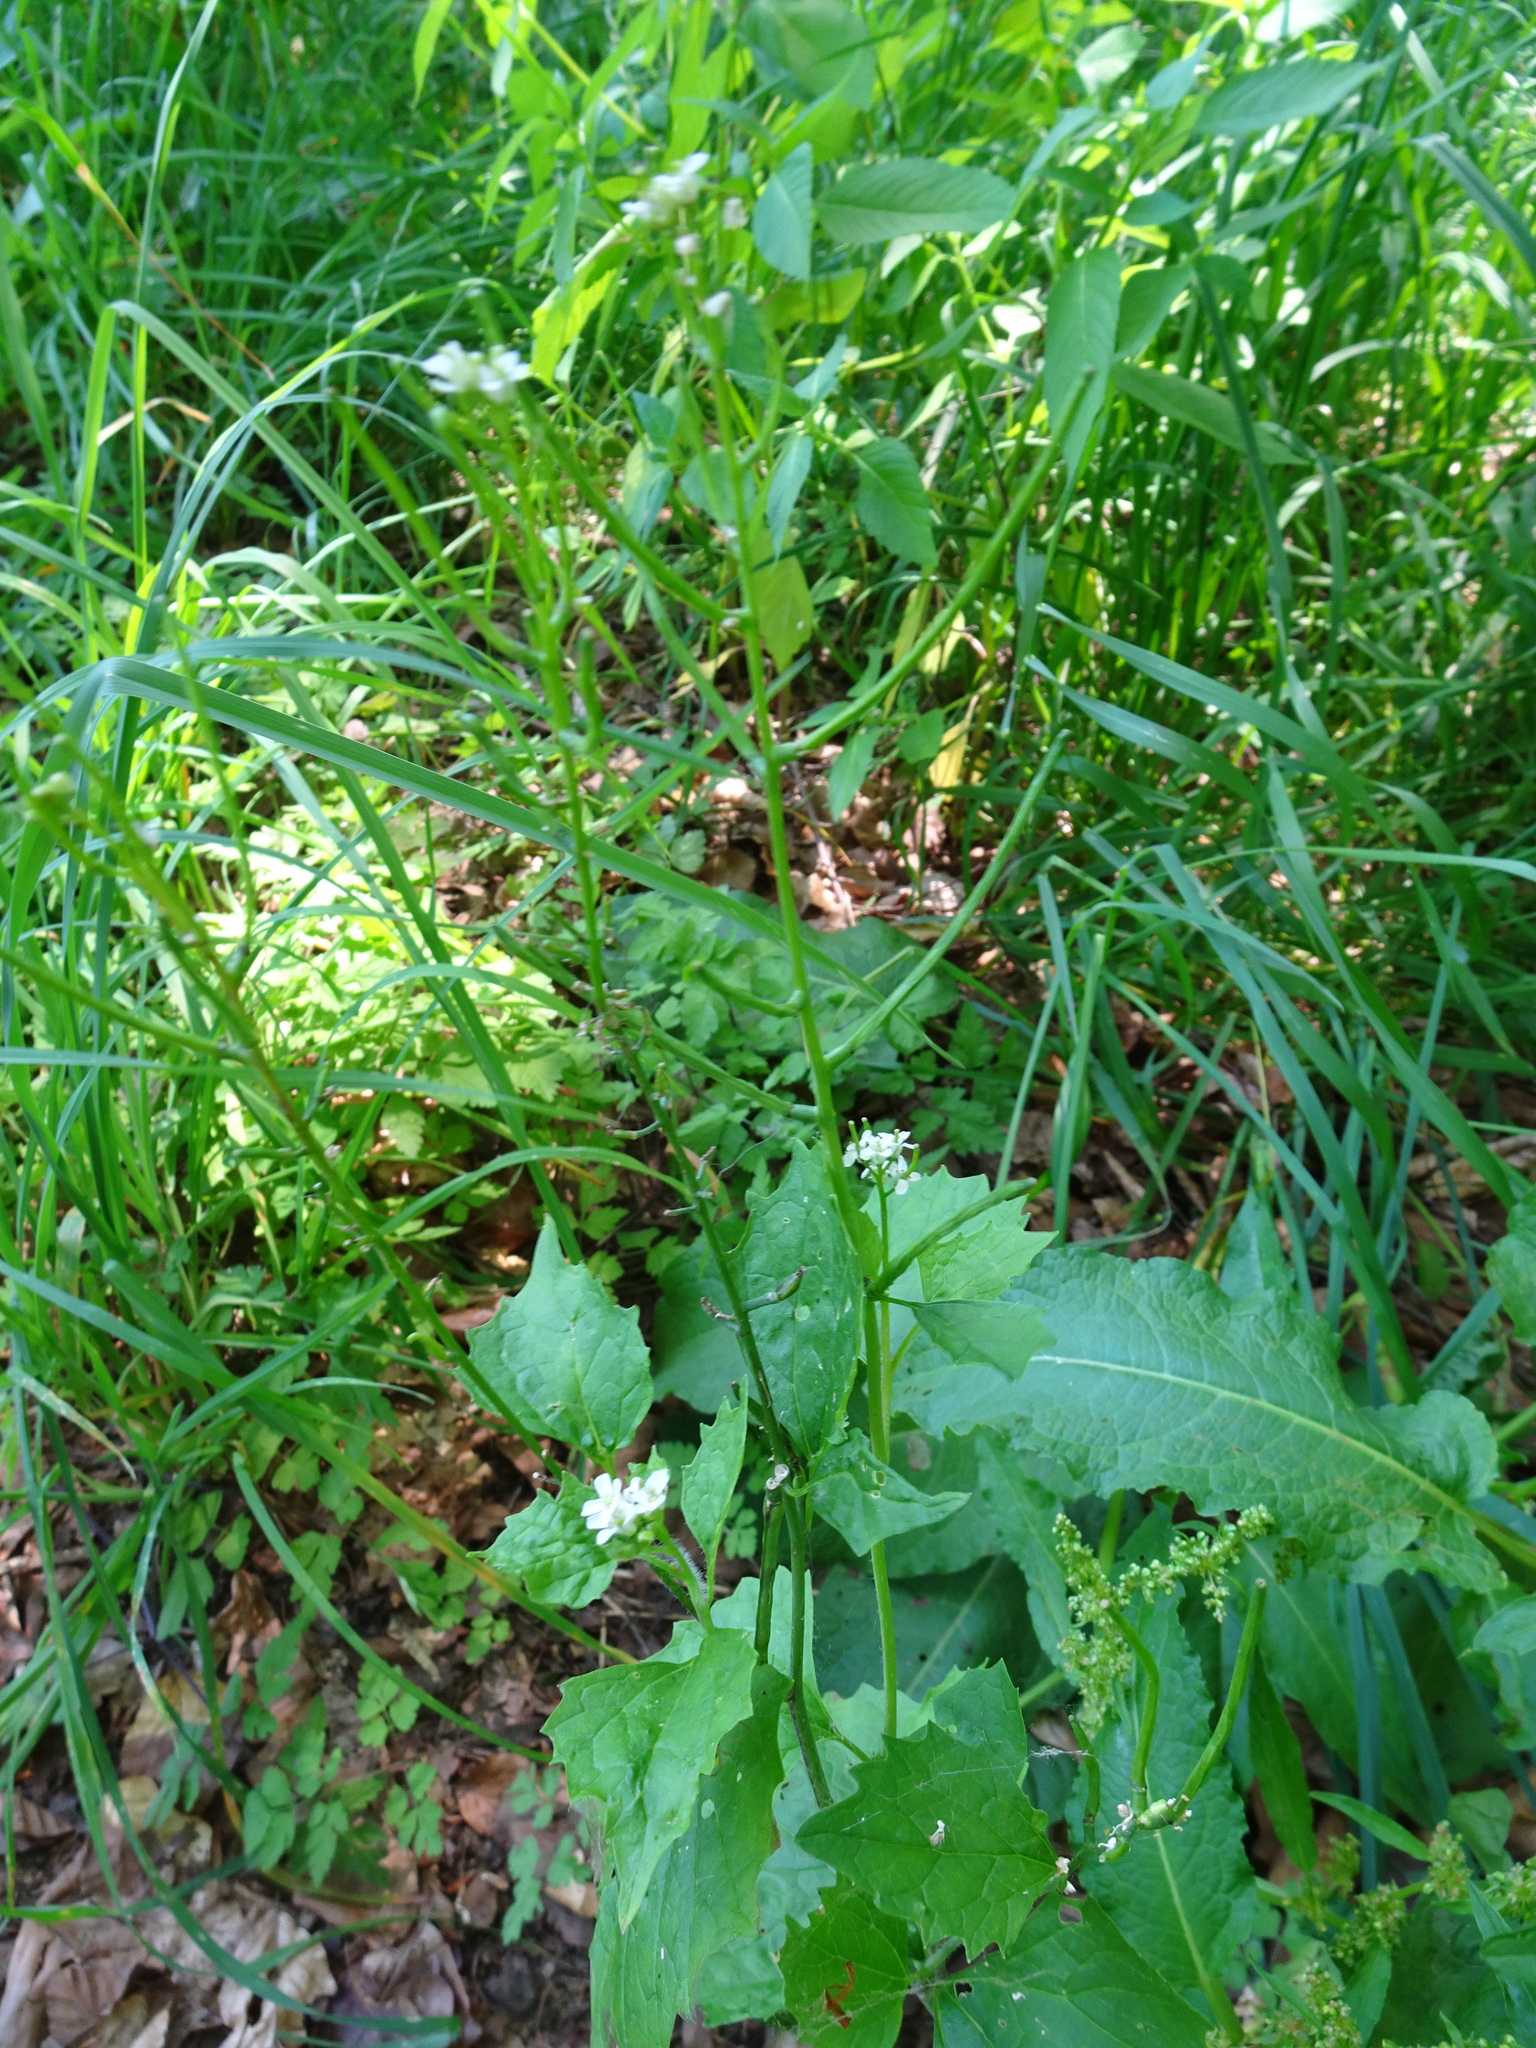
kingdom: Plantae
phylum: Tracheophyta
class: Magnoliopsida
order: Brassicales
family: Brassicaceae
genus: Alliaria
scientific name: Alliaria petiolata
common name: Garlic mustard
